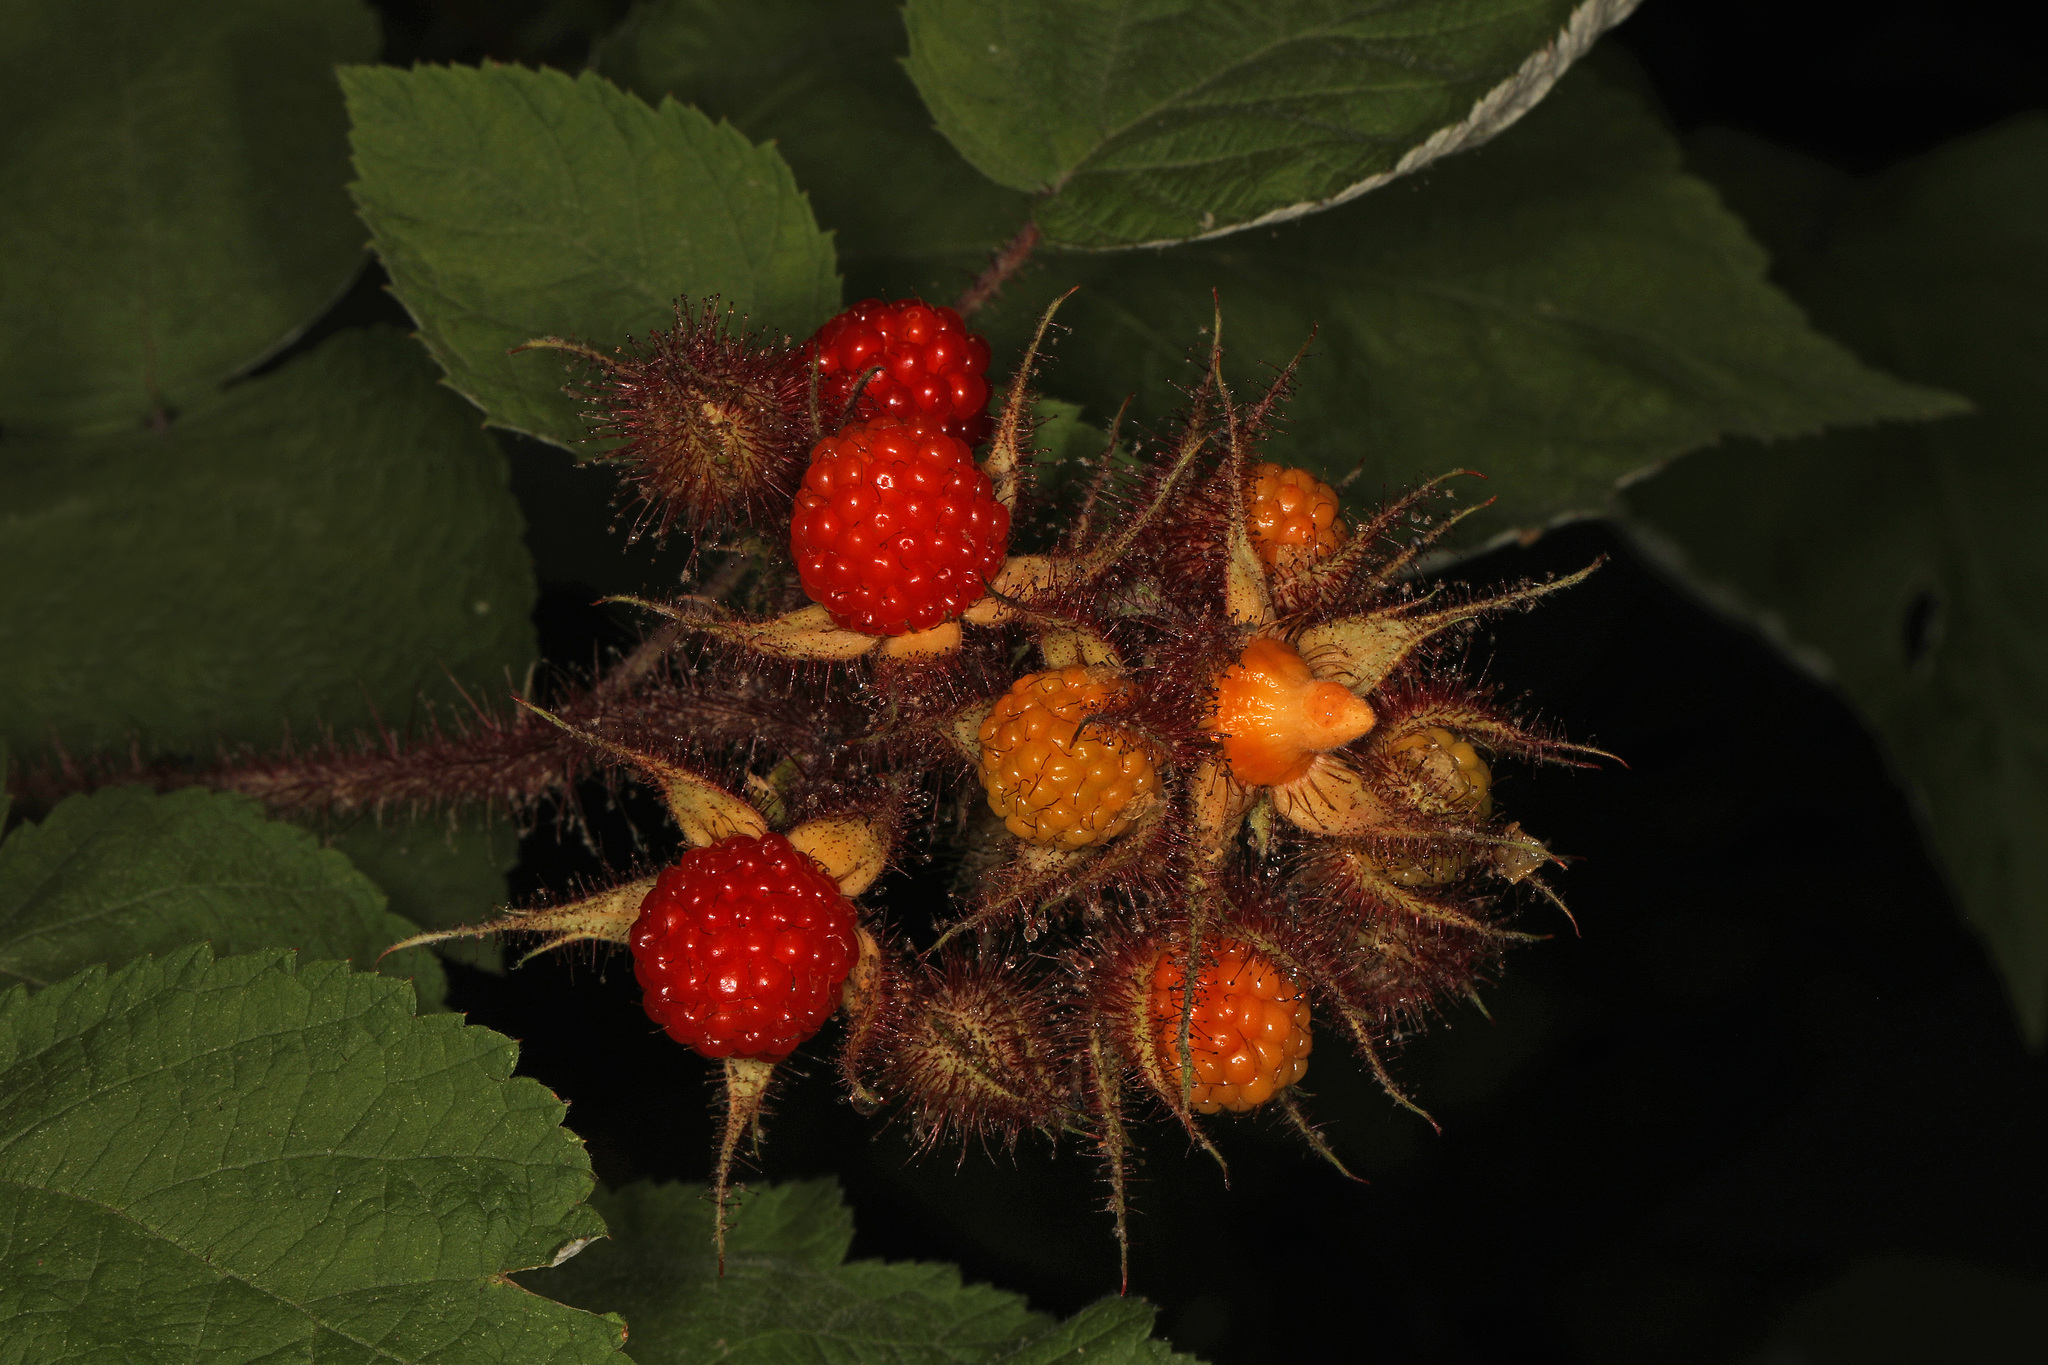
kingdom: Plantae
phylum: Tracheophyta
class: Magnoliopsida
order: Rosales
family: Rosaceae
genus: Rubus
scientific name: Rubus phoenicolasius
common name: Japanese wineberry
